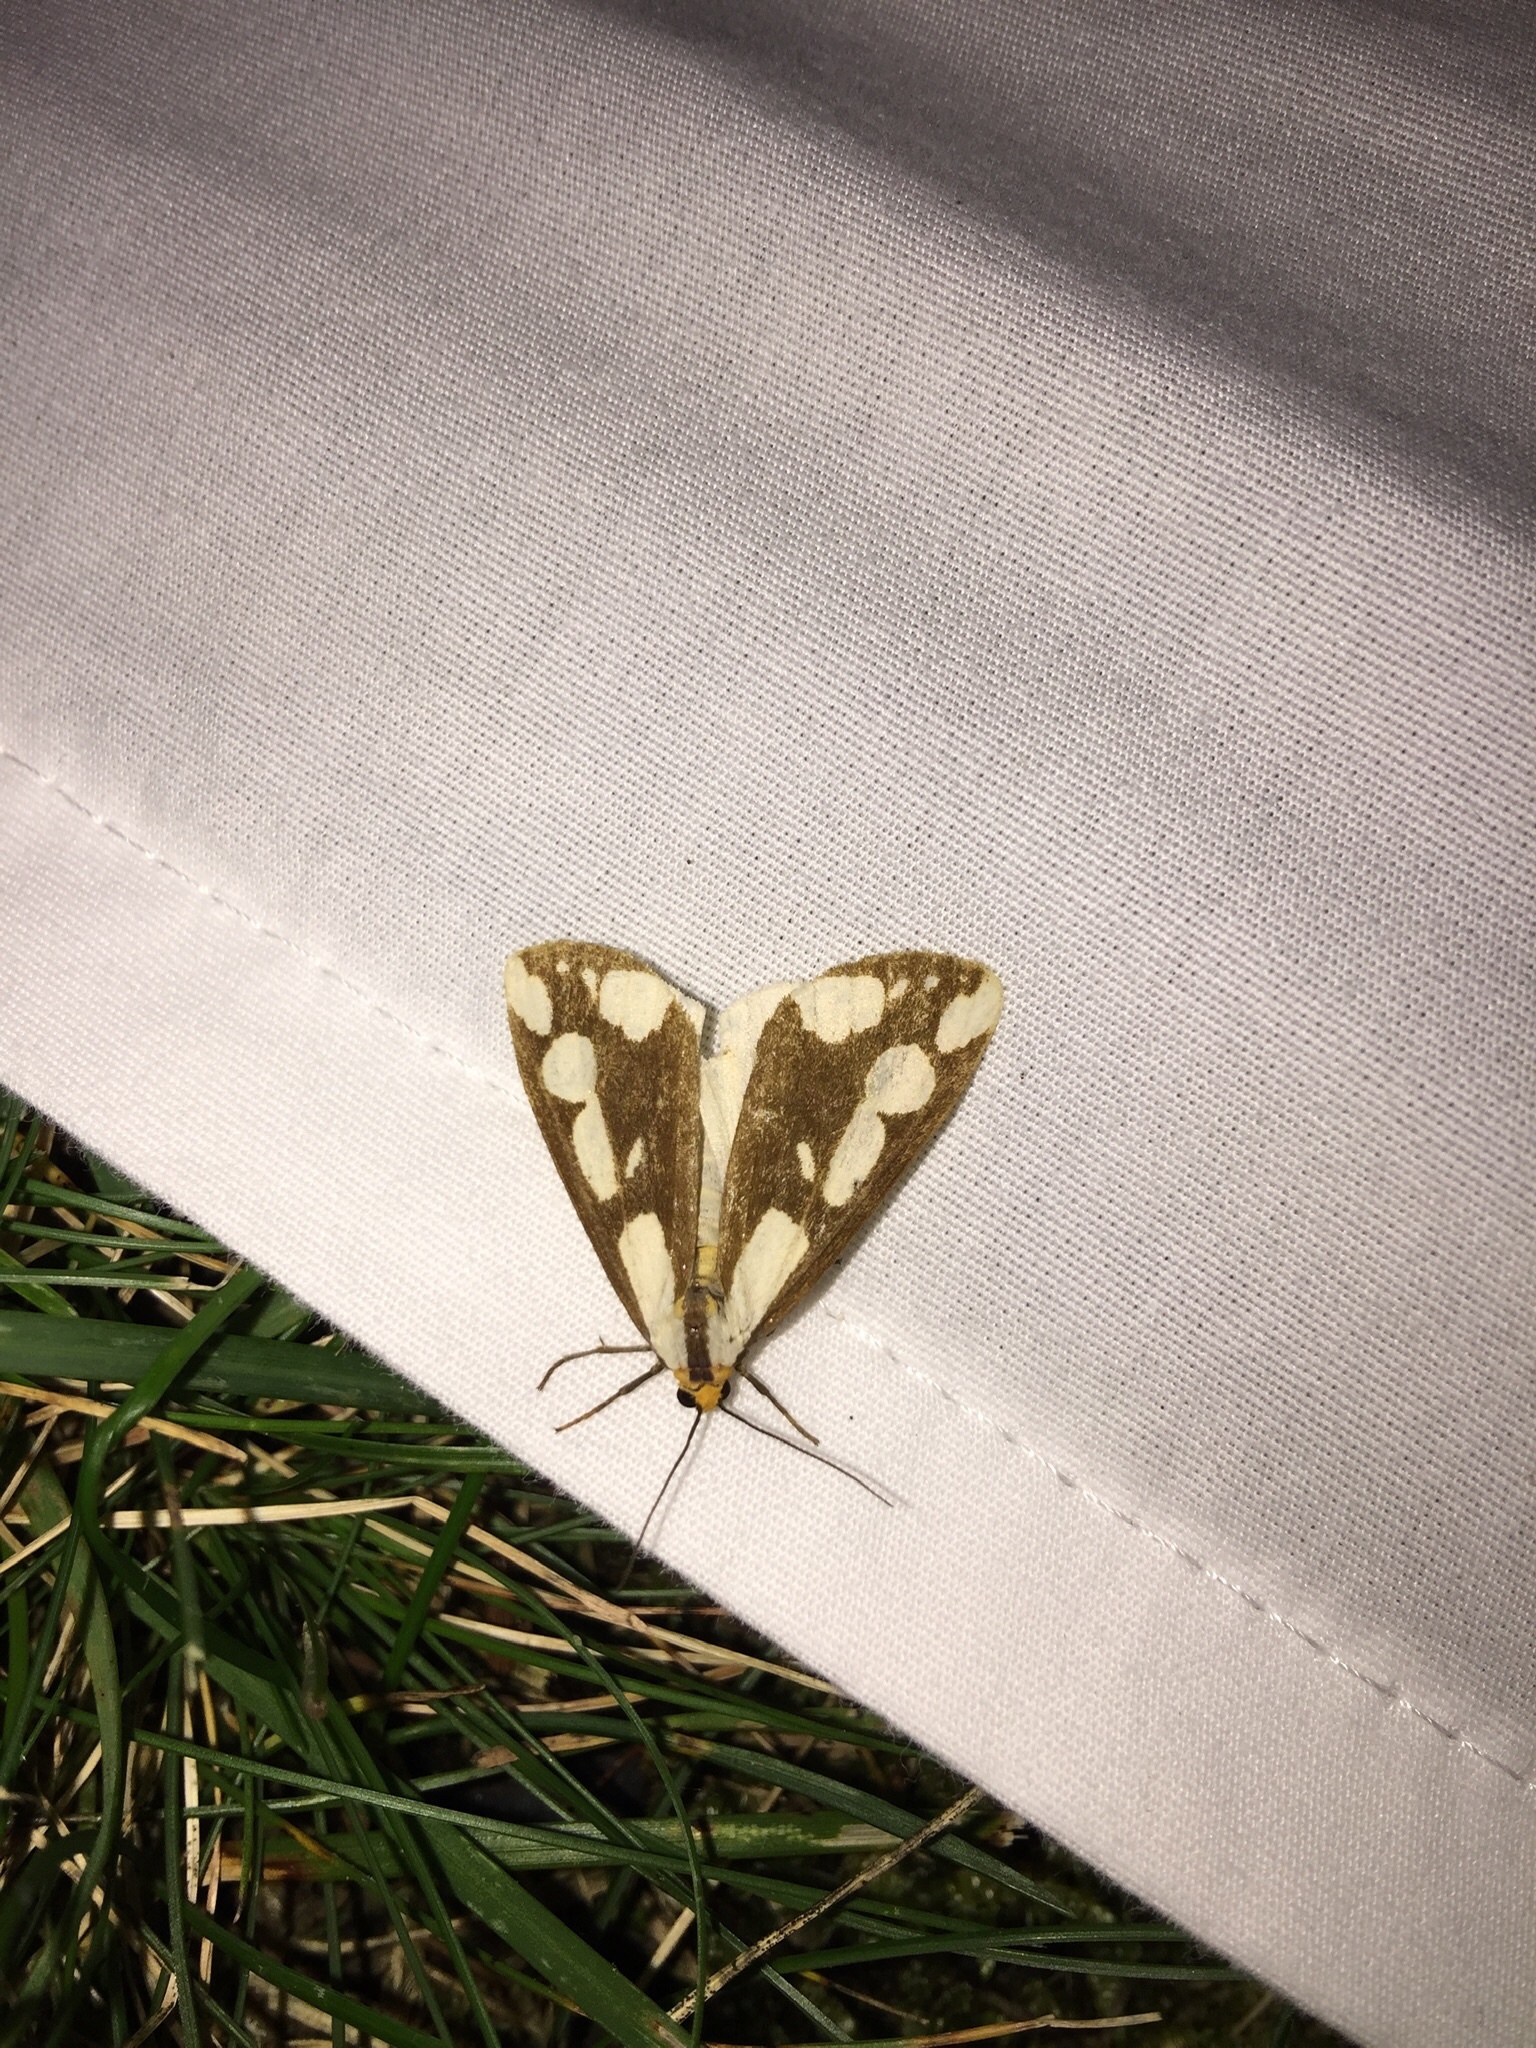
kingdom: Animalia
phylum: Arthropoda
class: Insecta
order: Lepidoptera
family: Erebidae
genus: Haploa
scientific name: Haploa confusa
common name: Confused haploa moth
